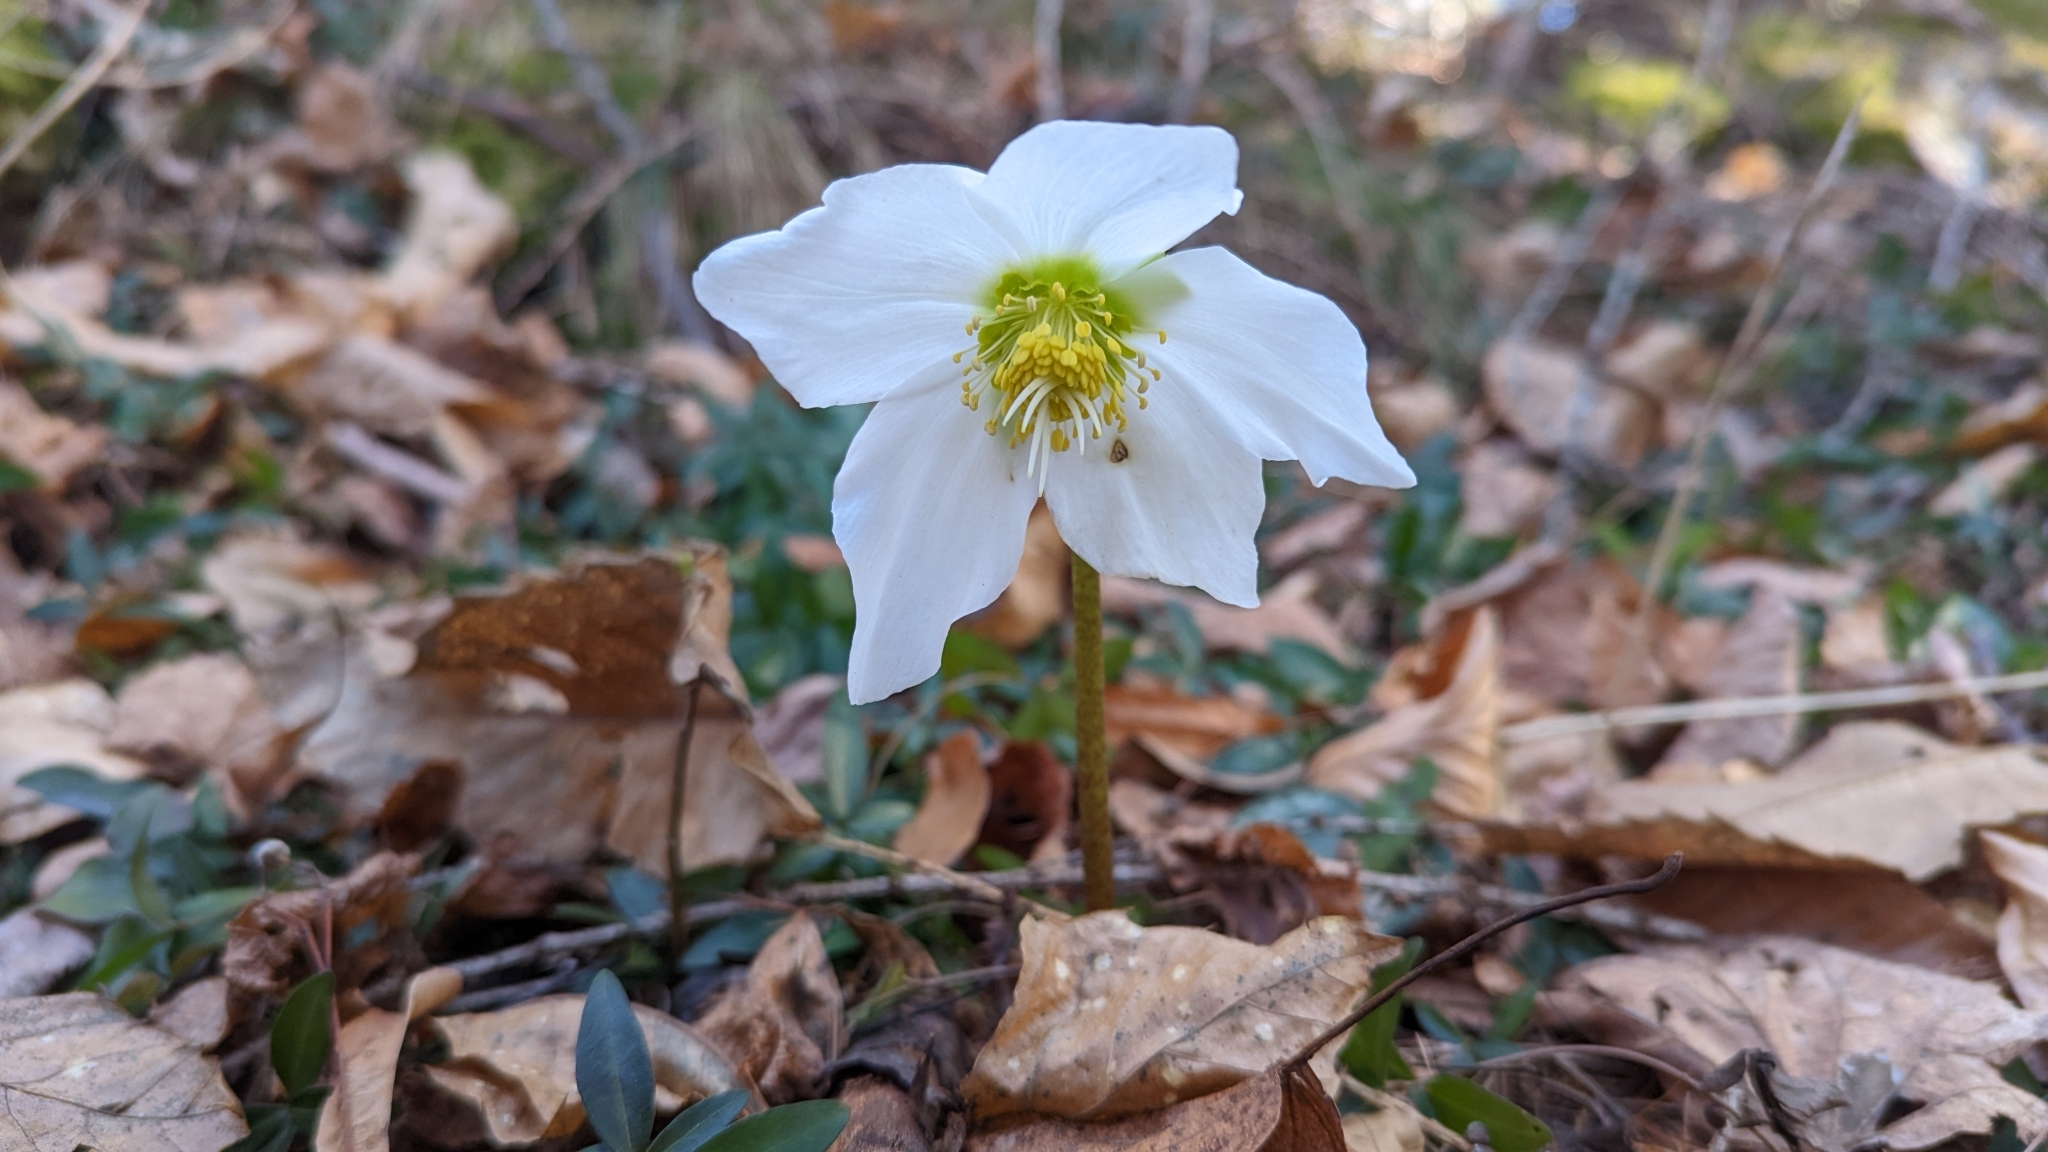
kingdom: Plantae
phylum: Tracheophyta
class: Magnoliopsida
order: Ranunculales
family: Ranunculaceae
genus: Helleborus
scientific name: Helleborus niger
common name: Black hellebore
